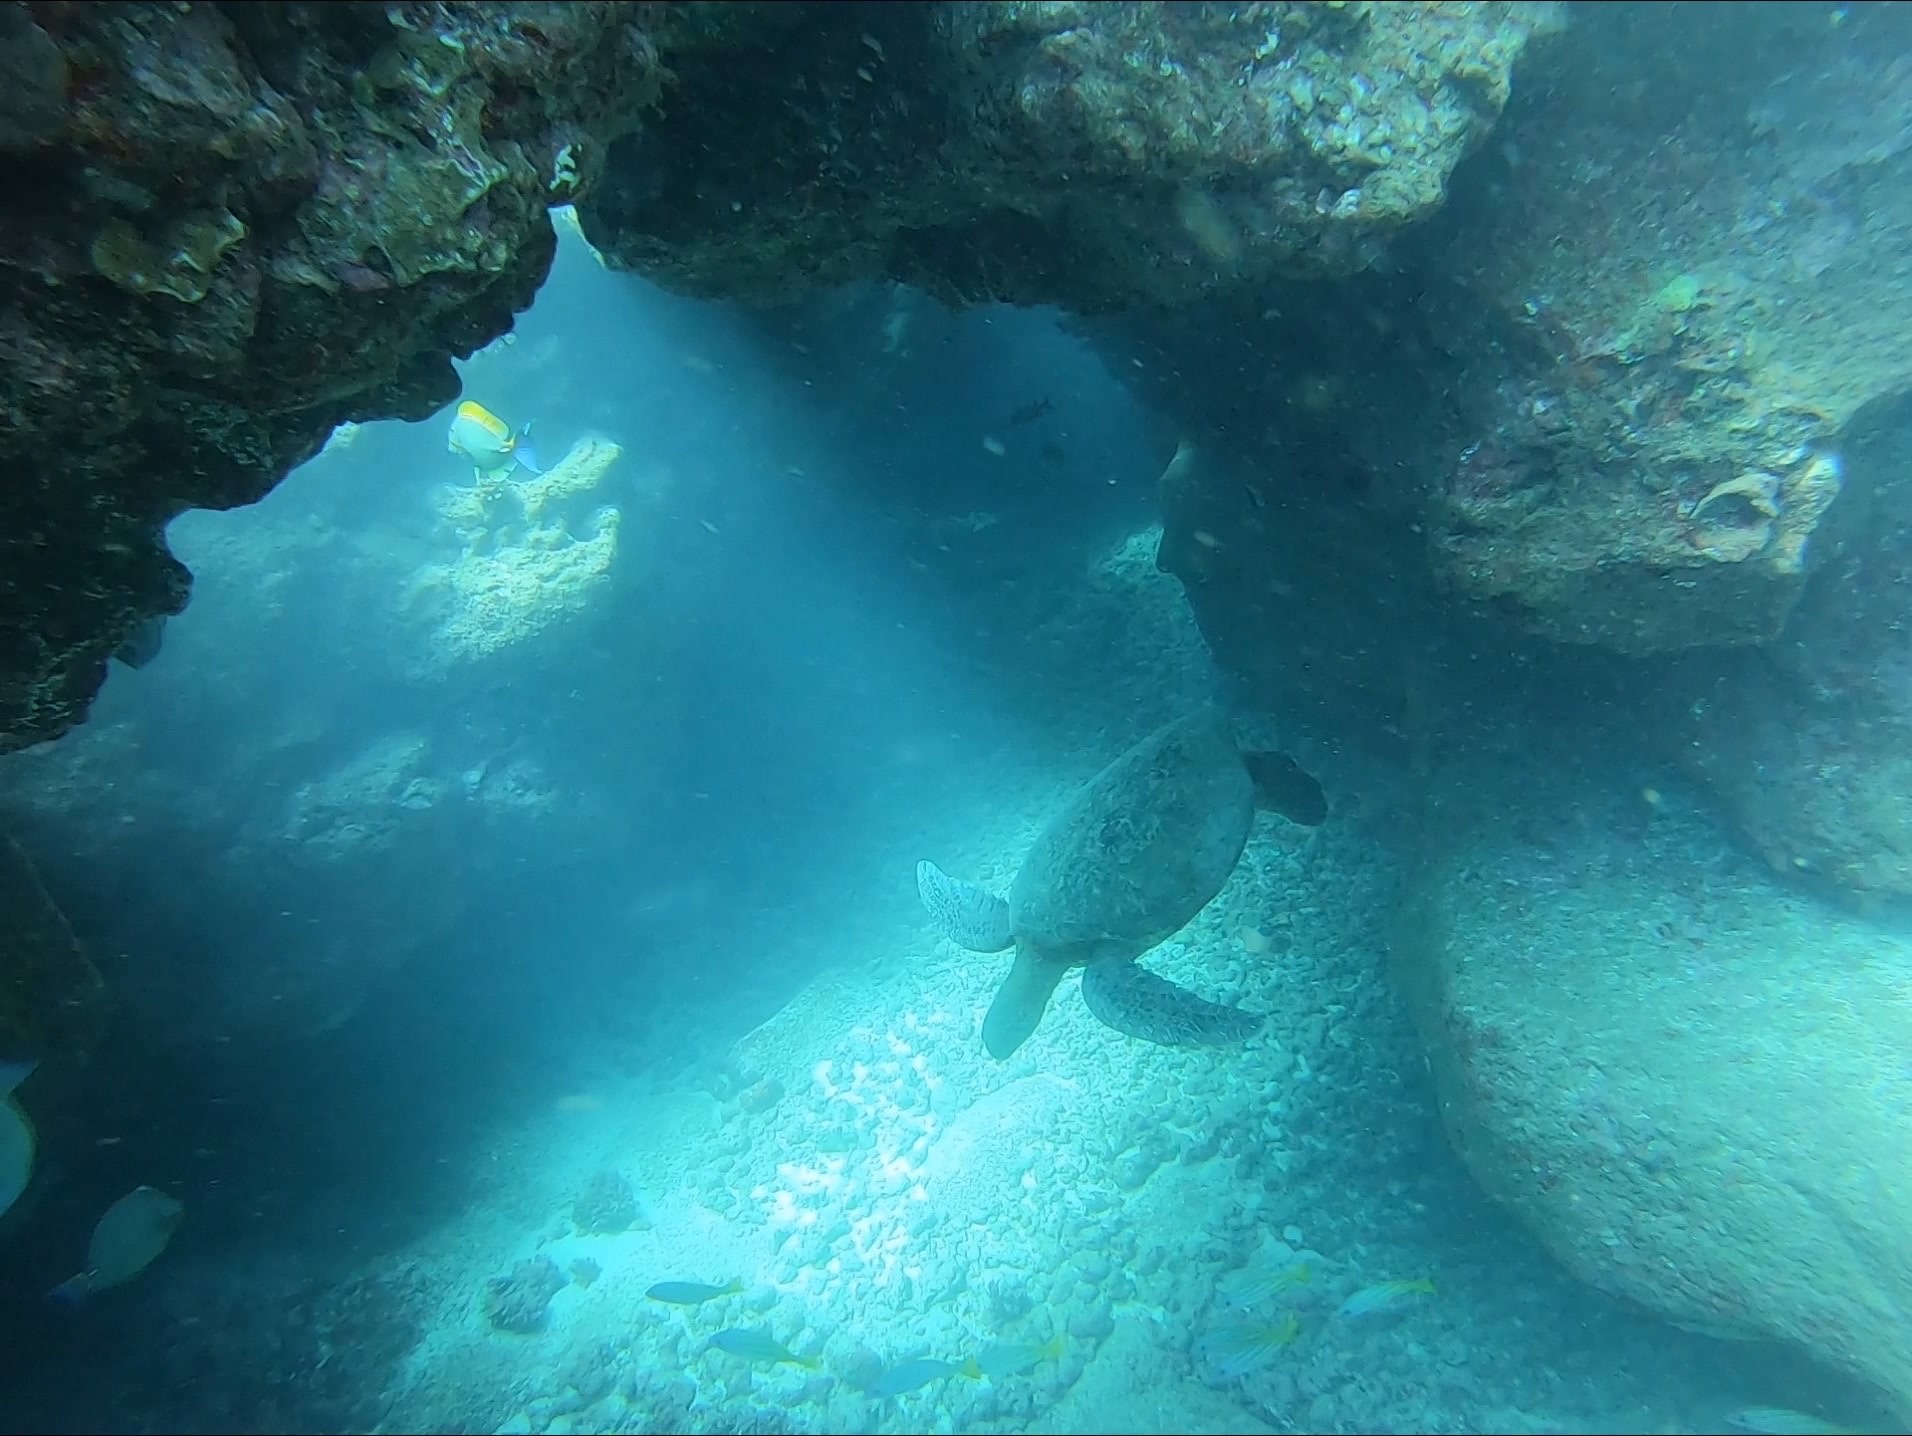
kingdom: Animalia
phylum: Chordata
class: Testudines
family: Cheloniidae
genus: Chelonia
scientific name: Chelonia mydas
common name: Green turtle
